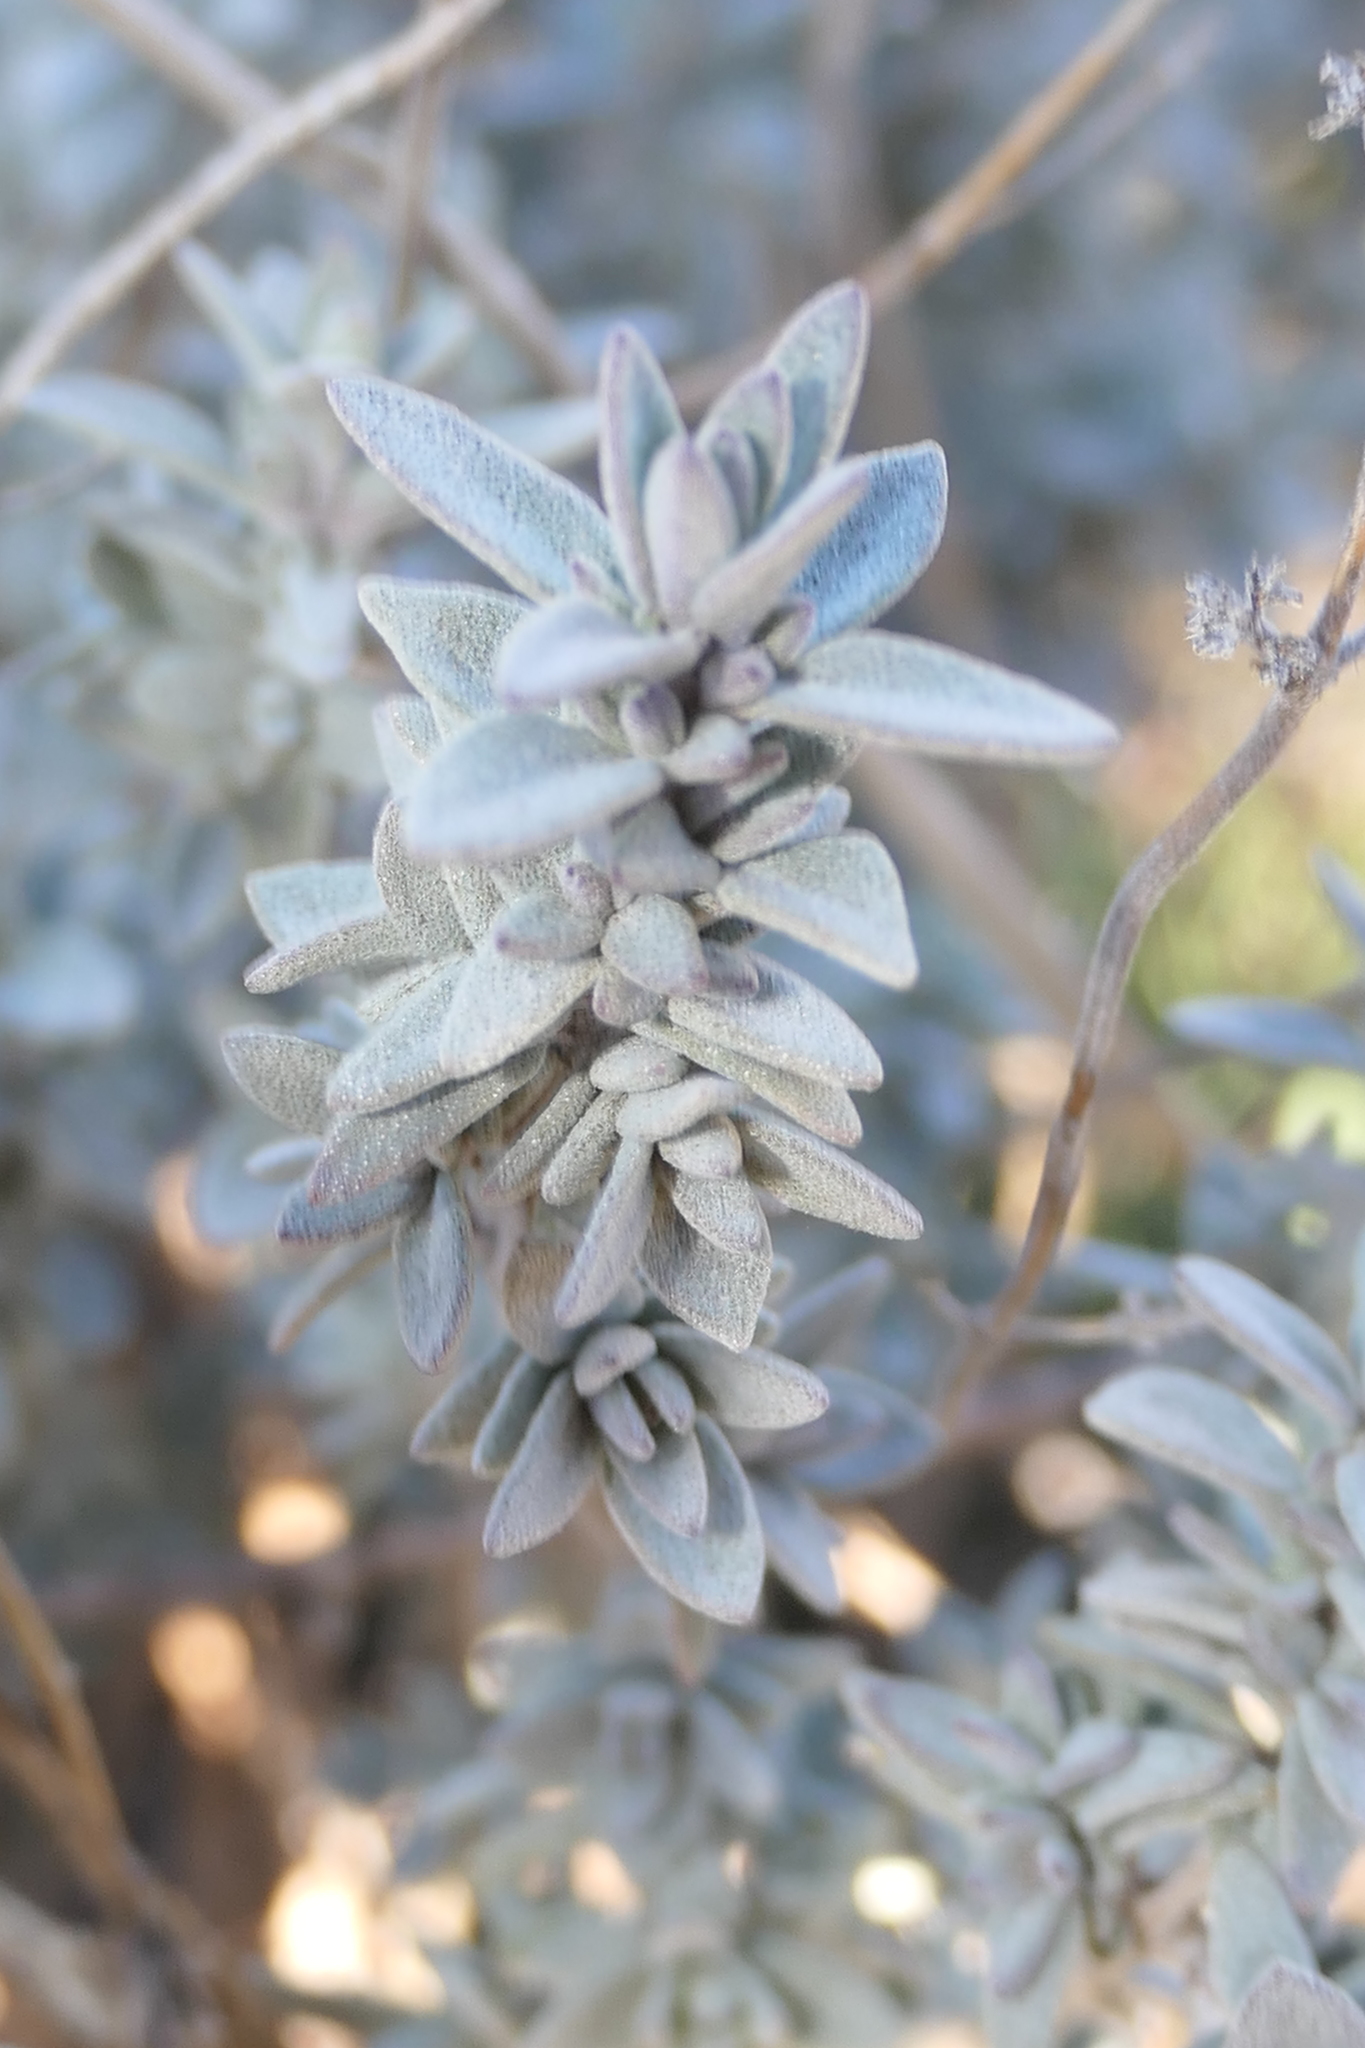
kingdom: Plantae
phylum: Tracheophyta
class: Magnoliopsida
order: Lamiales
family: Lamiaceae
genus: Thymus
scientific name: Thymus mastichina
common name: Mastic thyme
